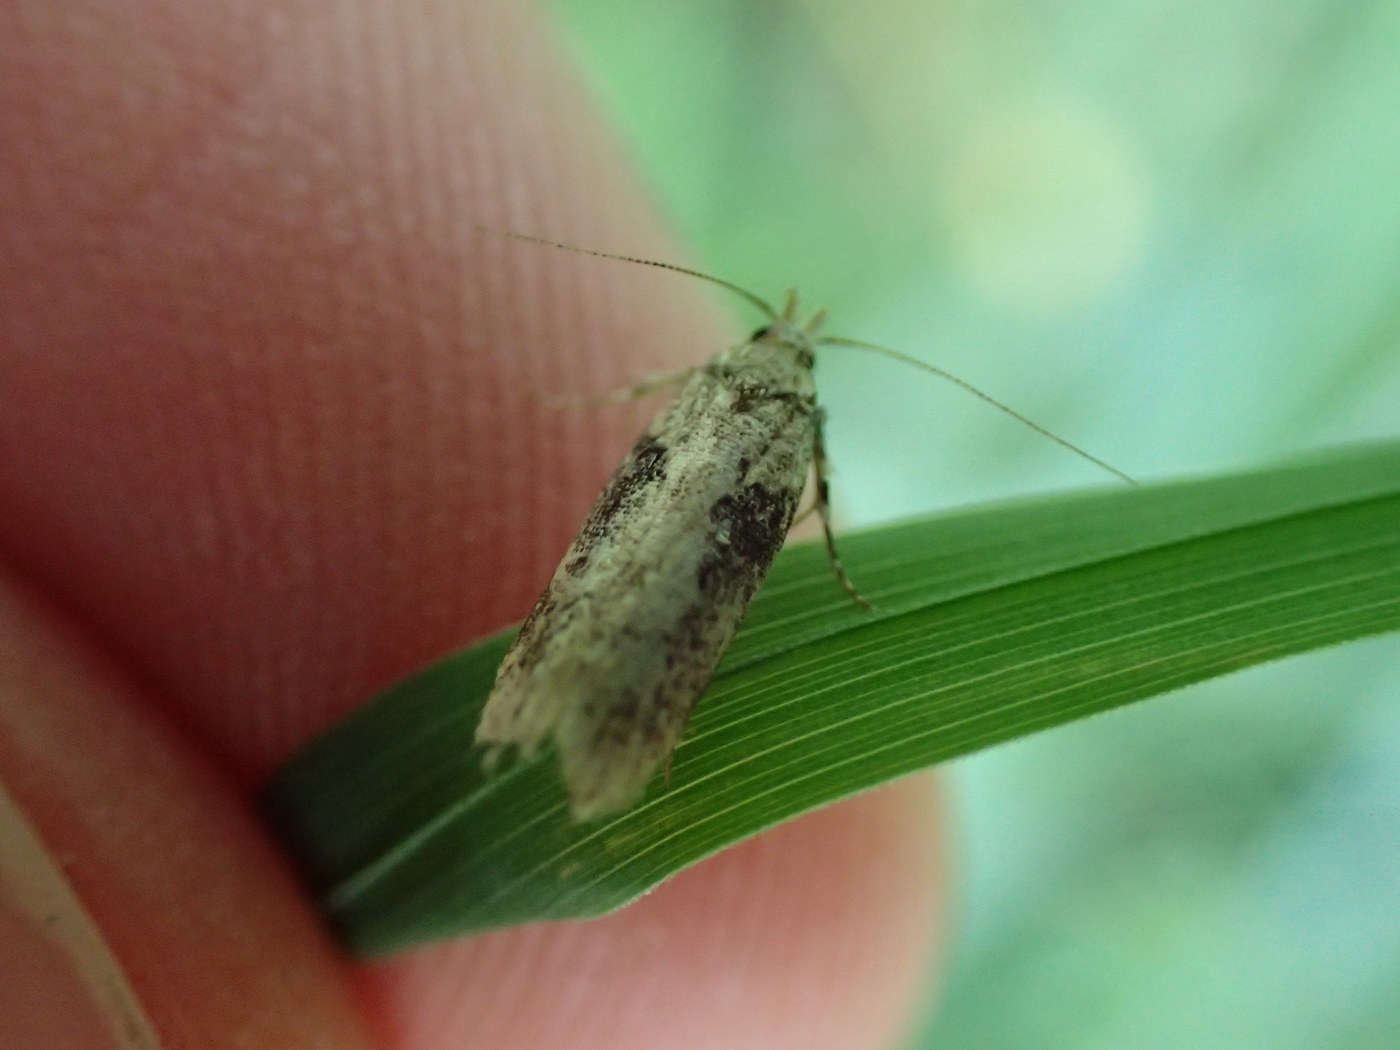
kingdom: Animalia
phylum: Arthropoda
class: Insecta
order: Lepidoptera
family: Gelechiidae
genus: Chionodes
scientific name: Chionodes mediofuscella
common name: Black-smudged chionodes moth
